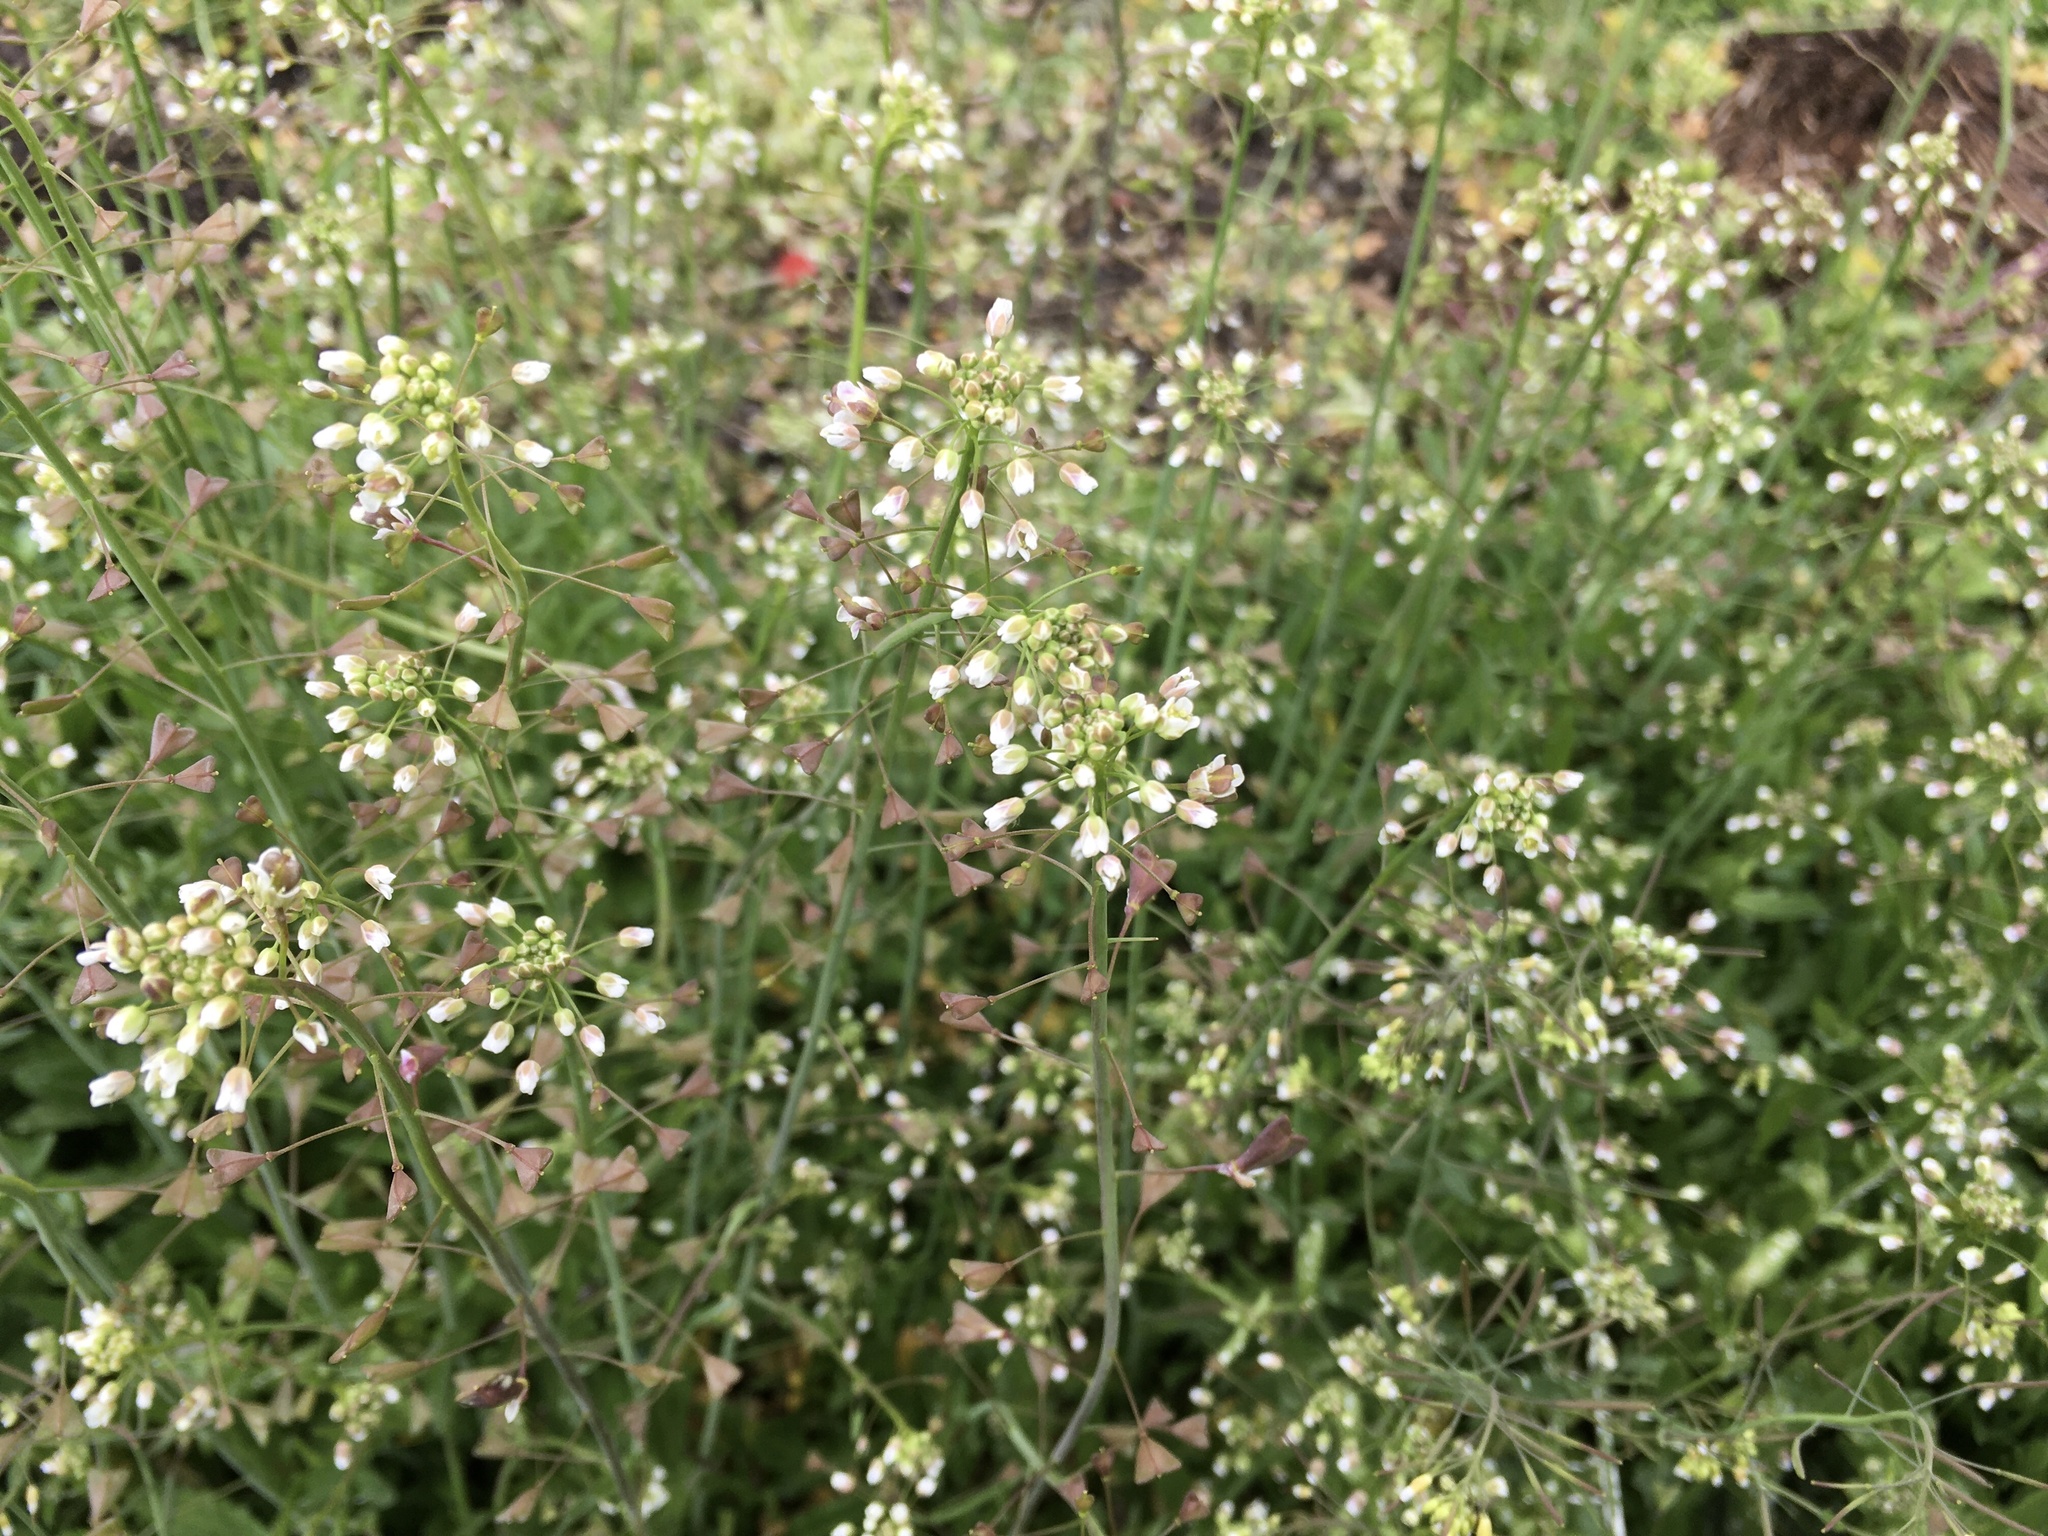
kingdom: Plantae
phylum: Tracheophyta
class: Magnoliopsida
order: Brassicales
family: Brassicaceae
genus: Capsella
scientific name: Capsella bursa-pastoris
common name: Shepherd's purse
